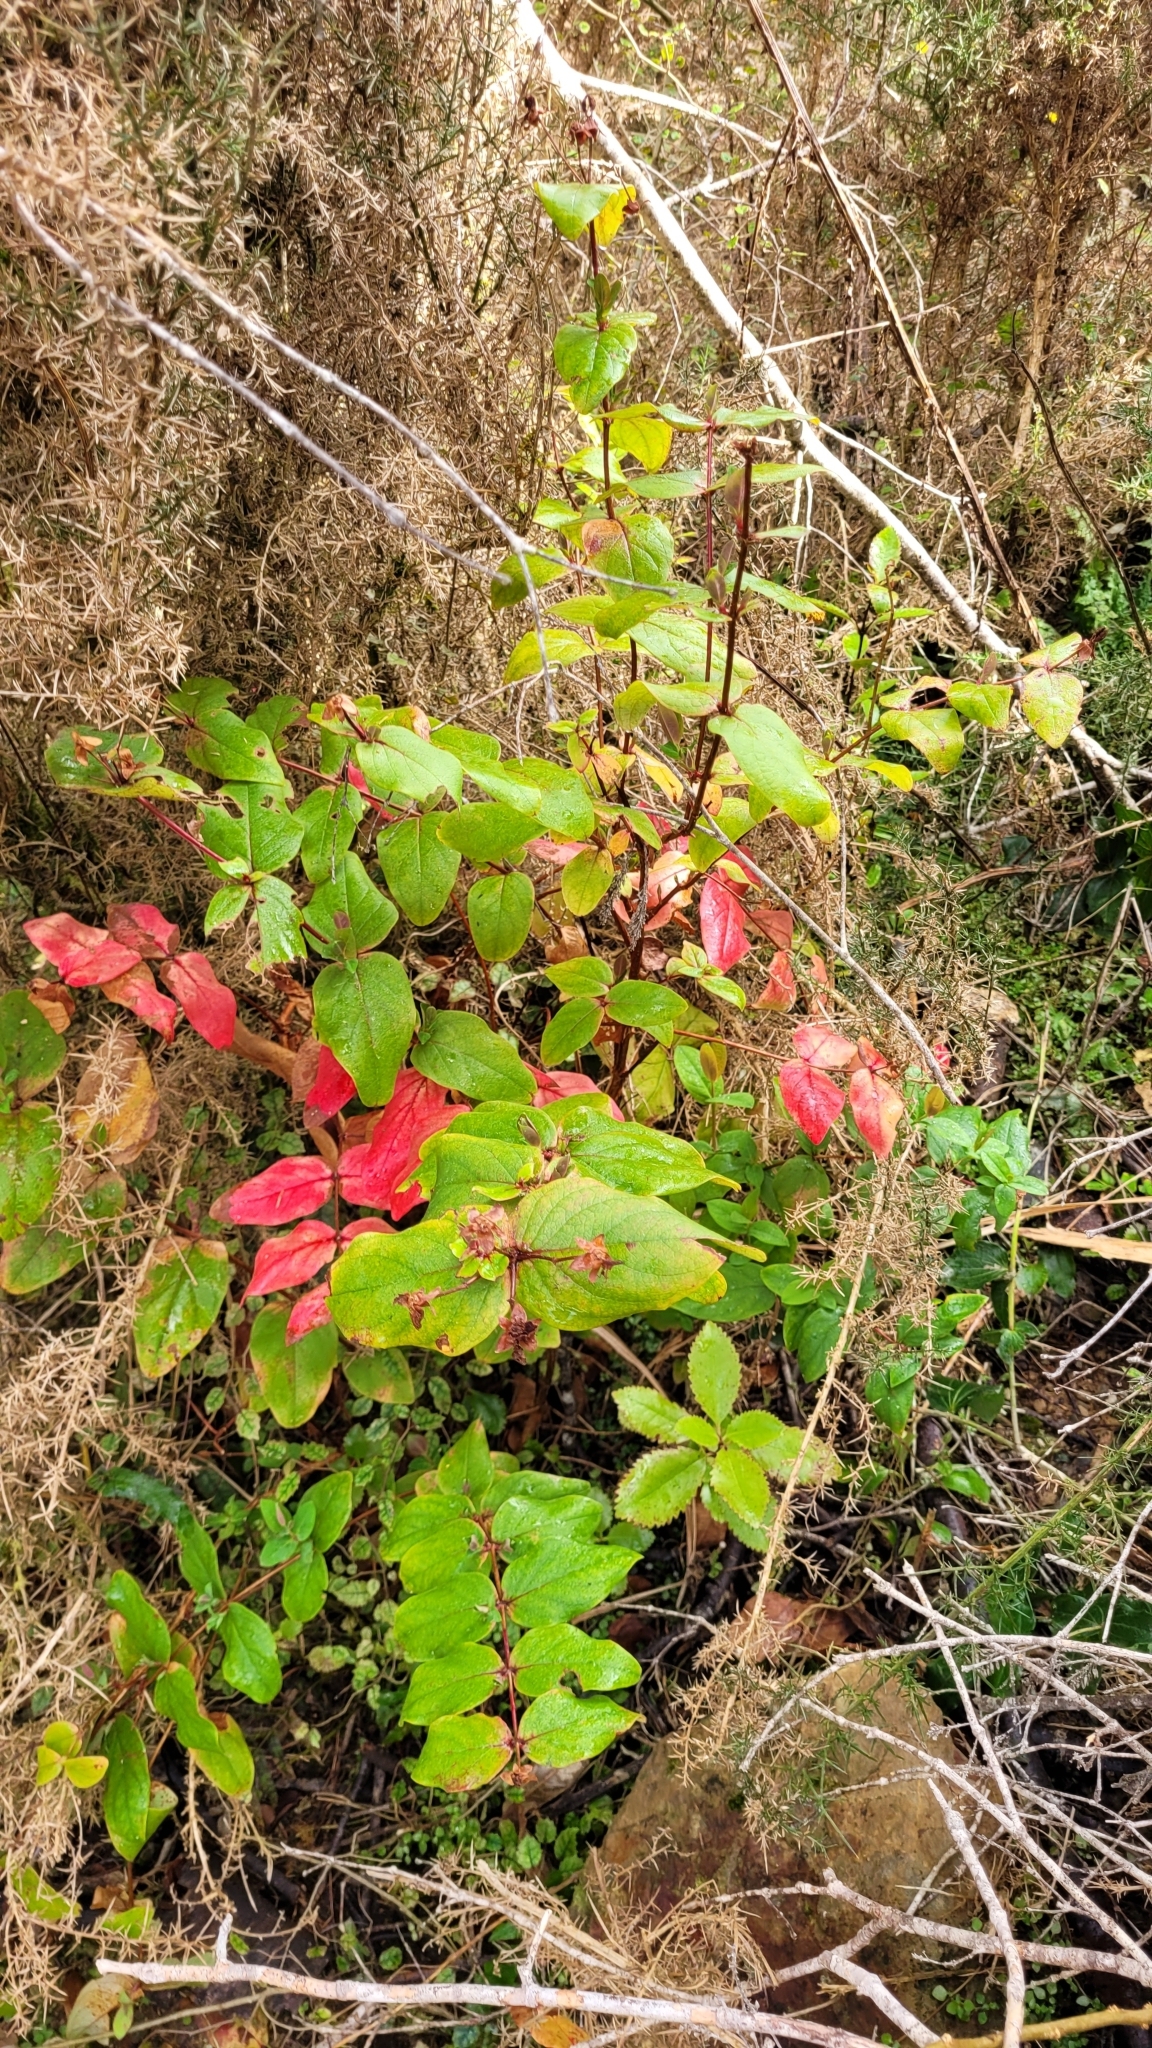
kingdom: Plantae
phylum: Tracheophyta
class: Magnoliopsida
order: Malpighiales
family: Hypericaceae
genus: Hypericum
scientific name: Hypericum androsaemum
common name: Sweet-amber
